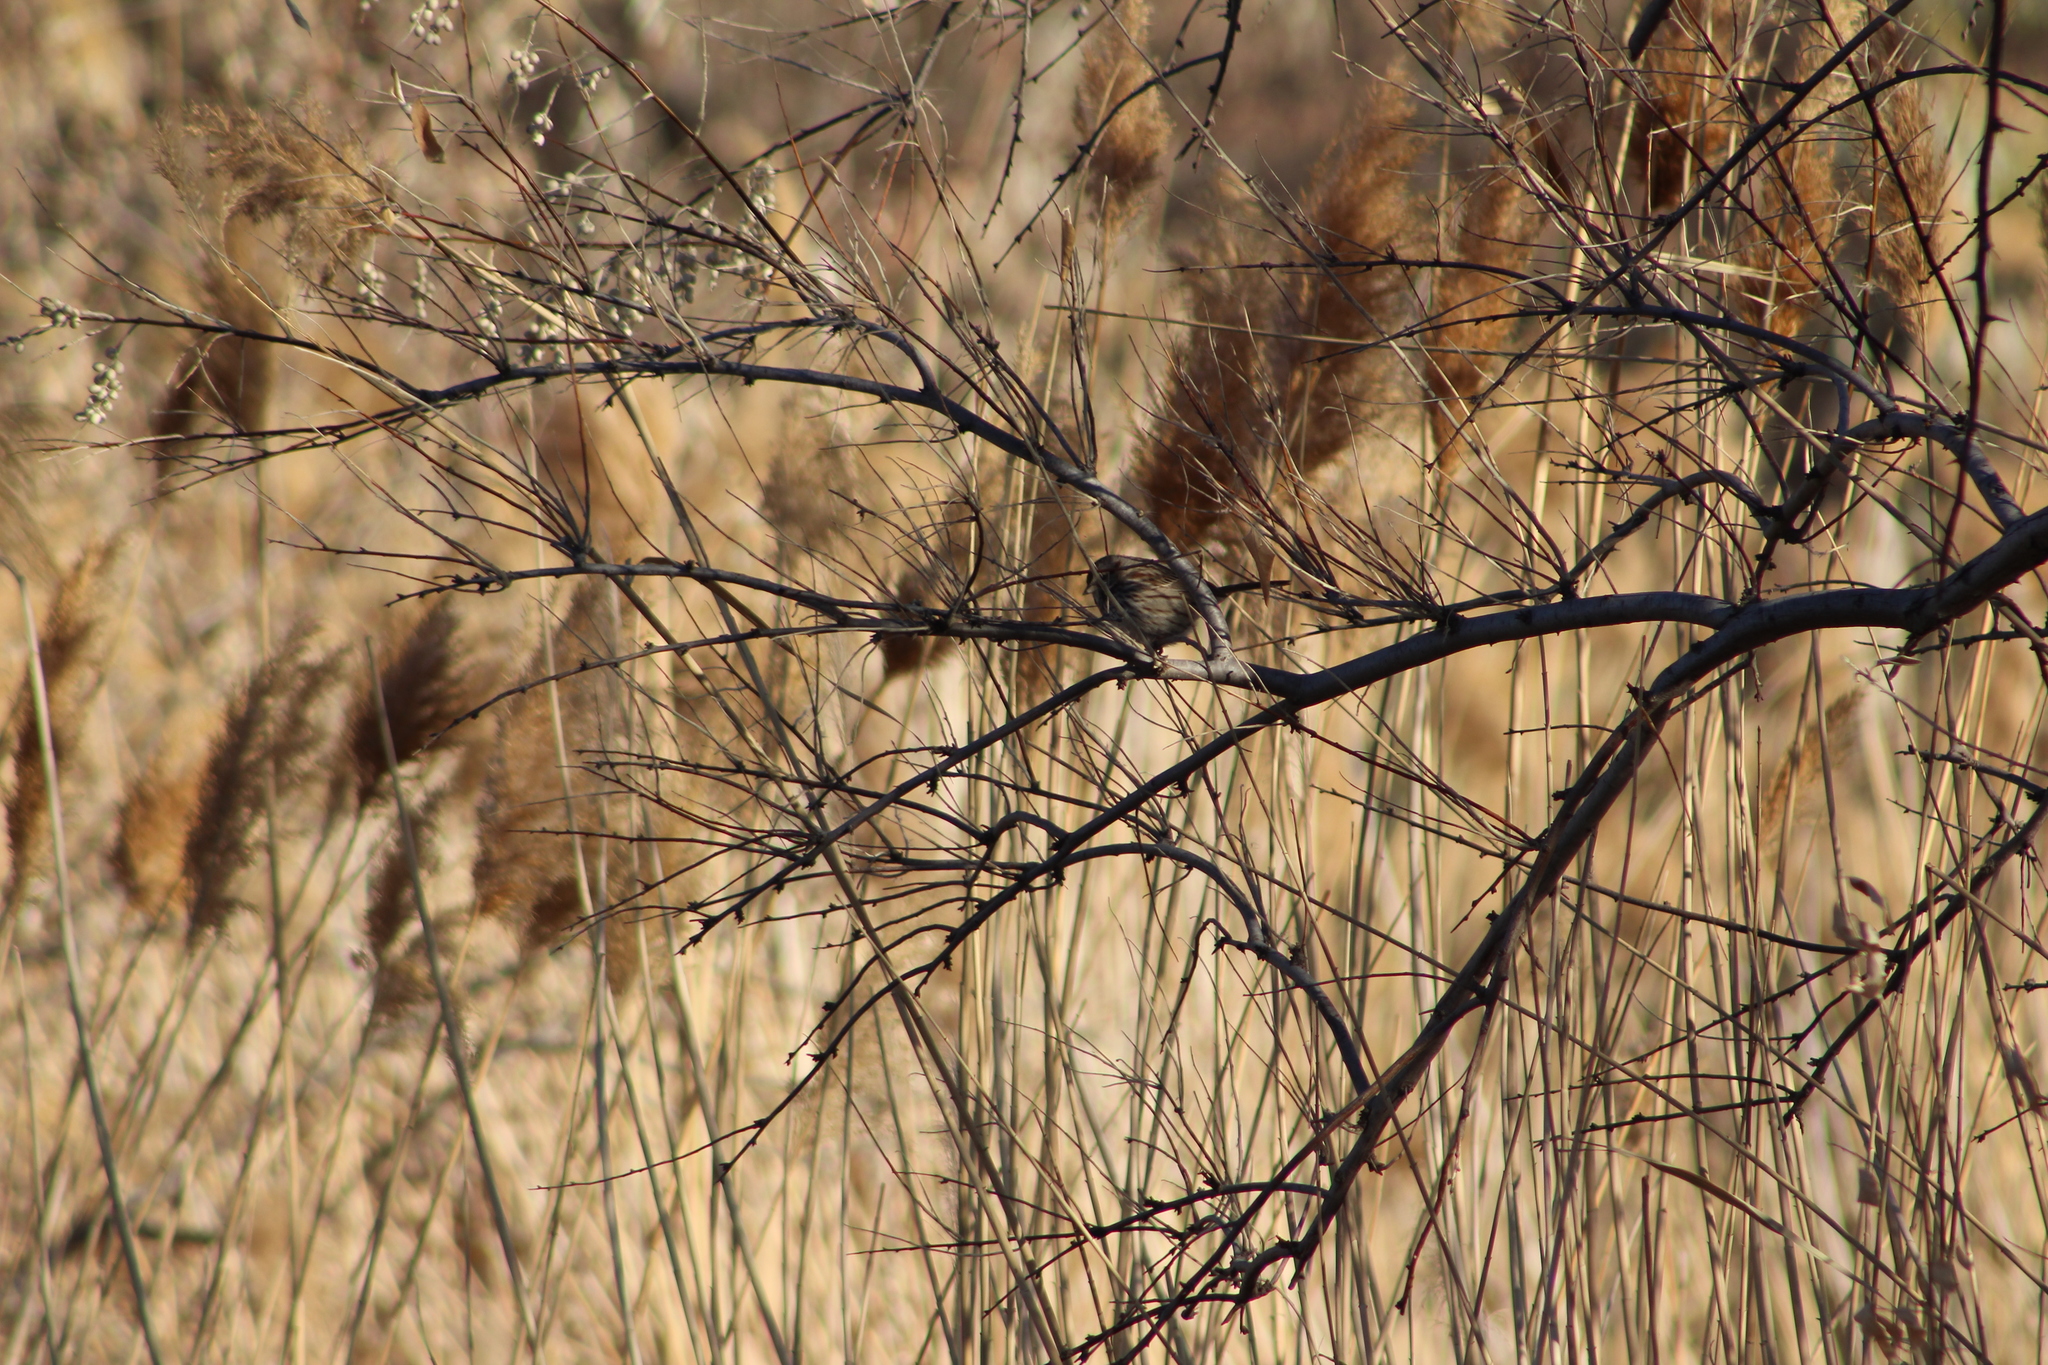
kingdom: Animalia
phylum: Chordata
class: Aves
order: Passeriformes
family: Passerellidae
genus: Melospiza
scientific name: Melospiza melodia
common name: Song sparrow
